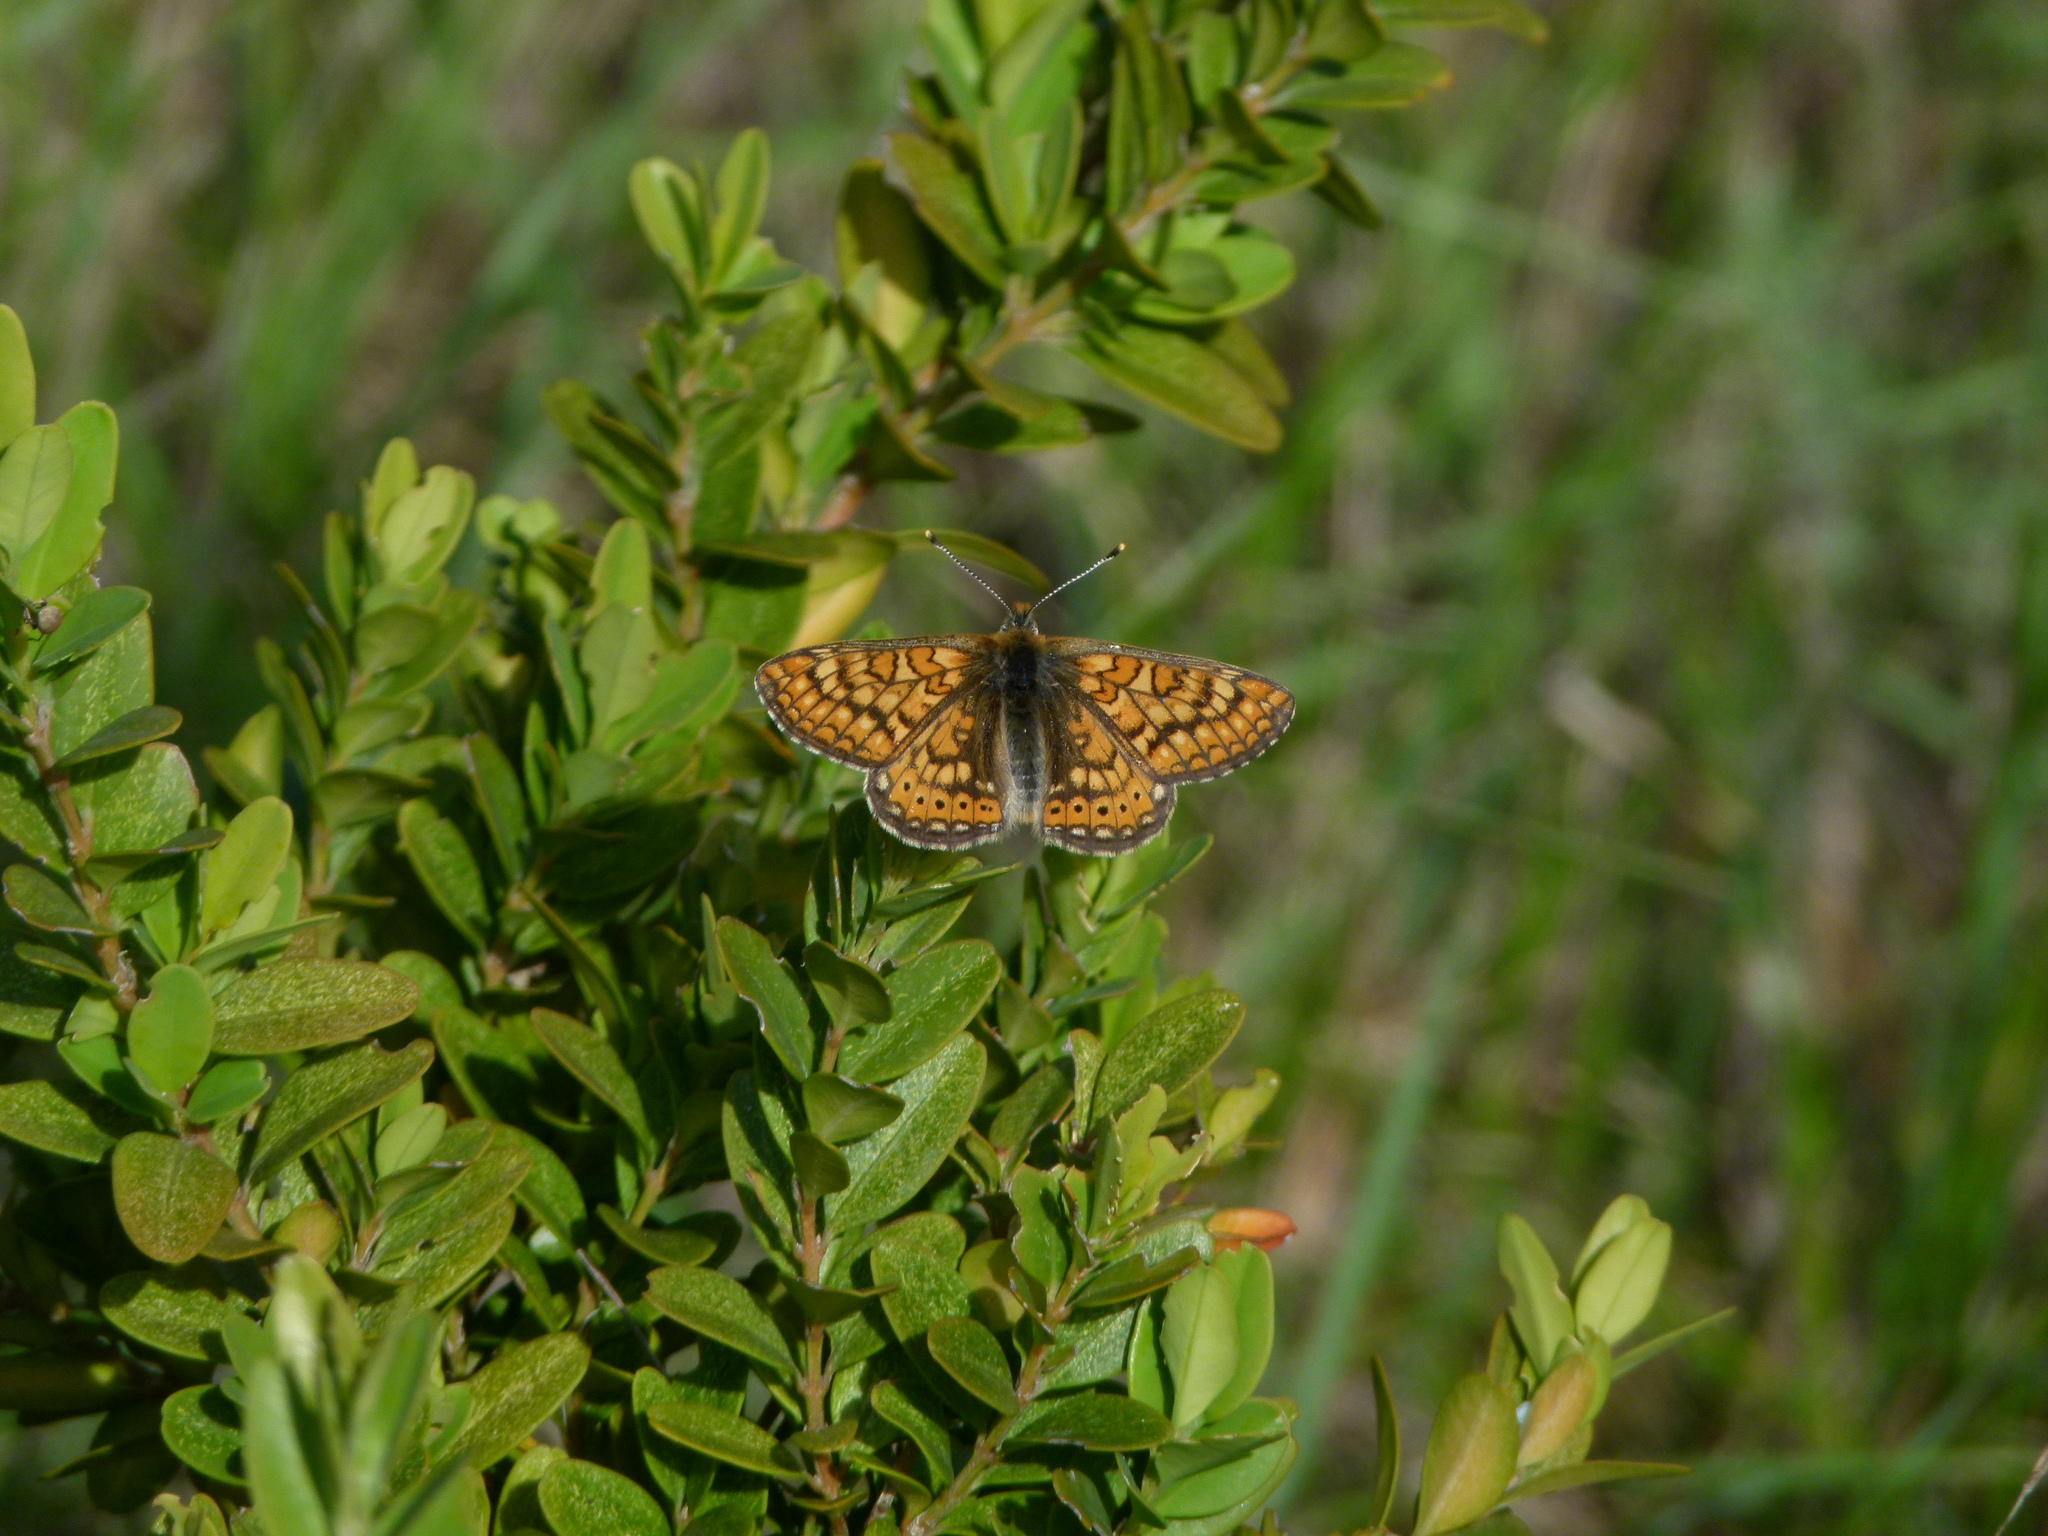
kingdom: Animalia
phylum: Arthropoda
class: Insecta
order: Lepidoptera
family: Nymphalidae
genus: Euphydryas
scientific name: Euphydryas aurinia
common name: Marsh fritillary
